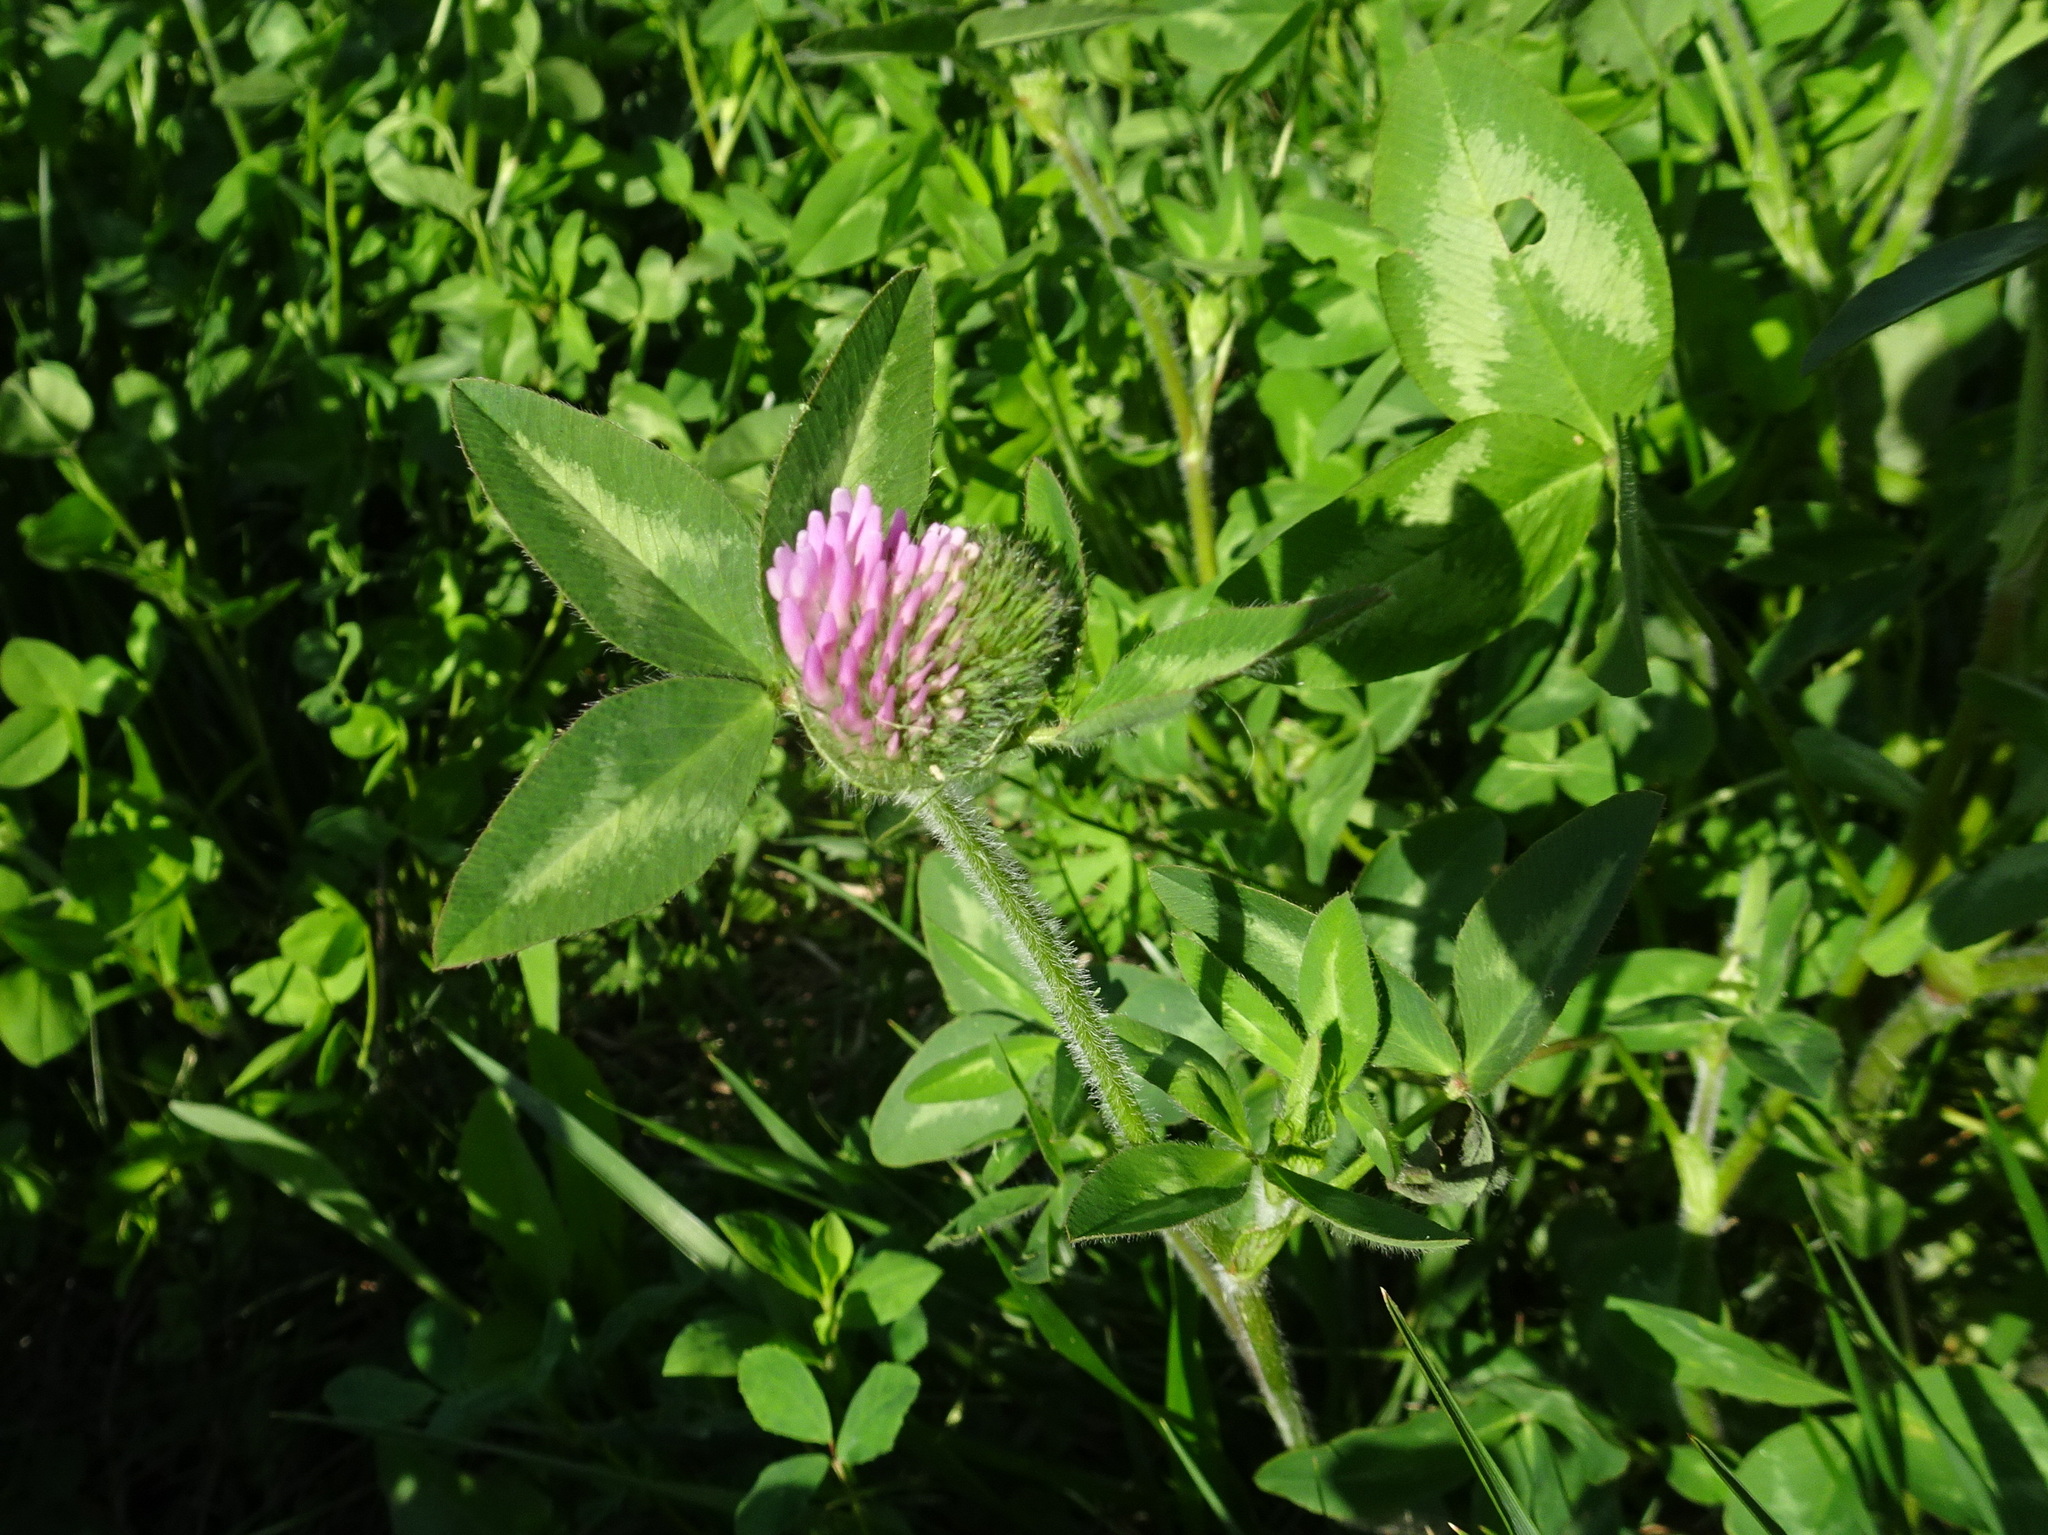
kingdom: Plantae
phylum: Tracheophyta
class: Magnoliopsida
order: Fabales
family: Fabaceae
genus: Trifolium
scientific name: Trifolium pratense
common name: Red clover
